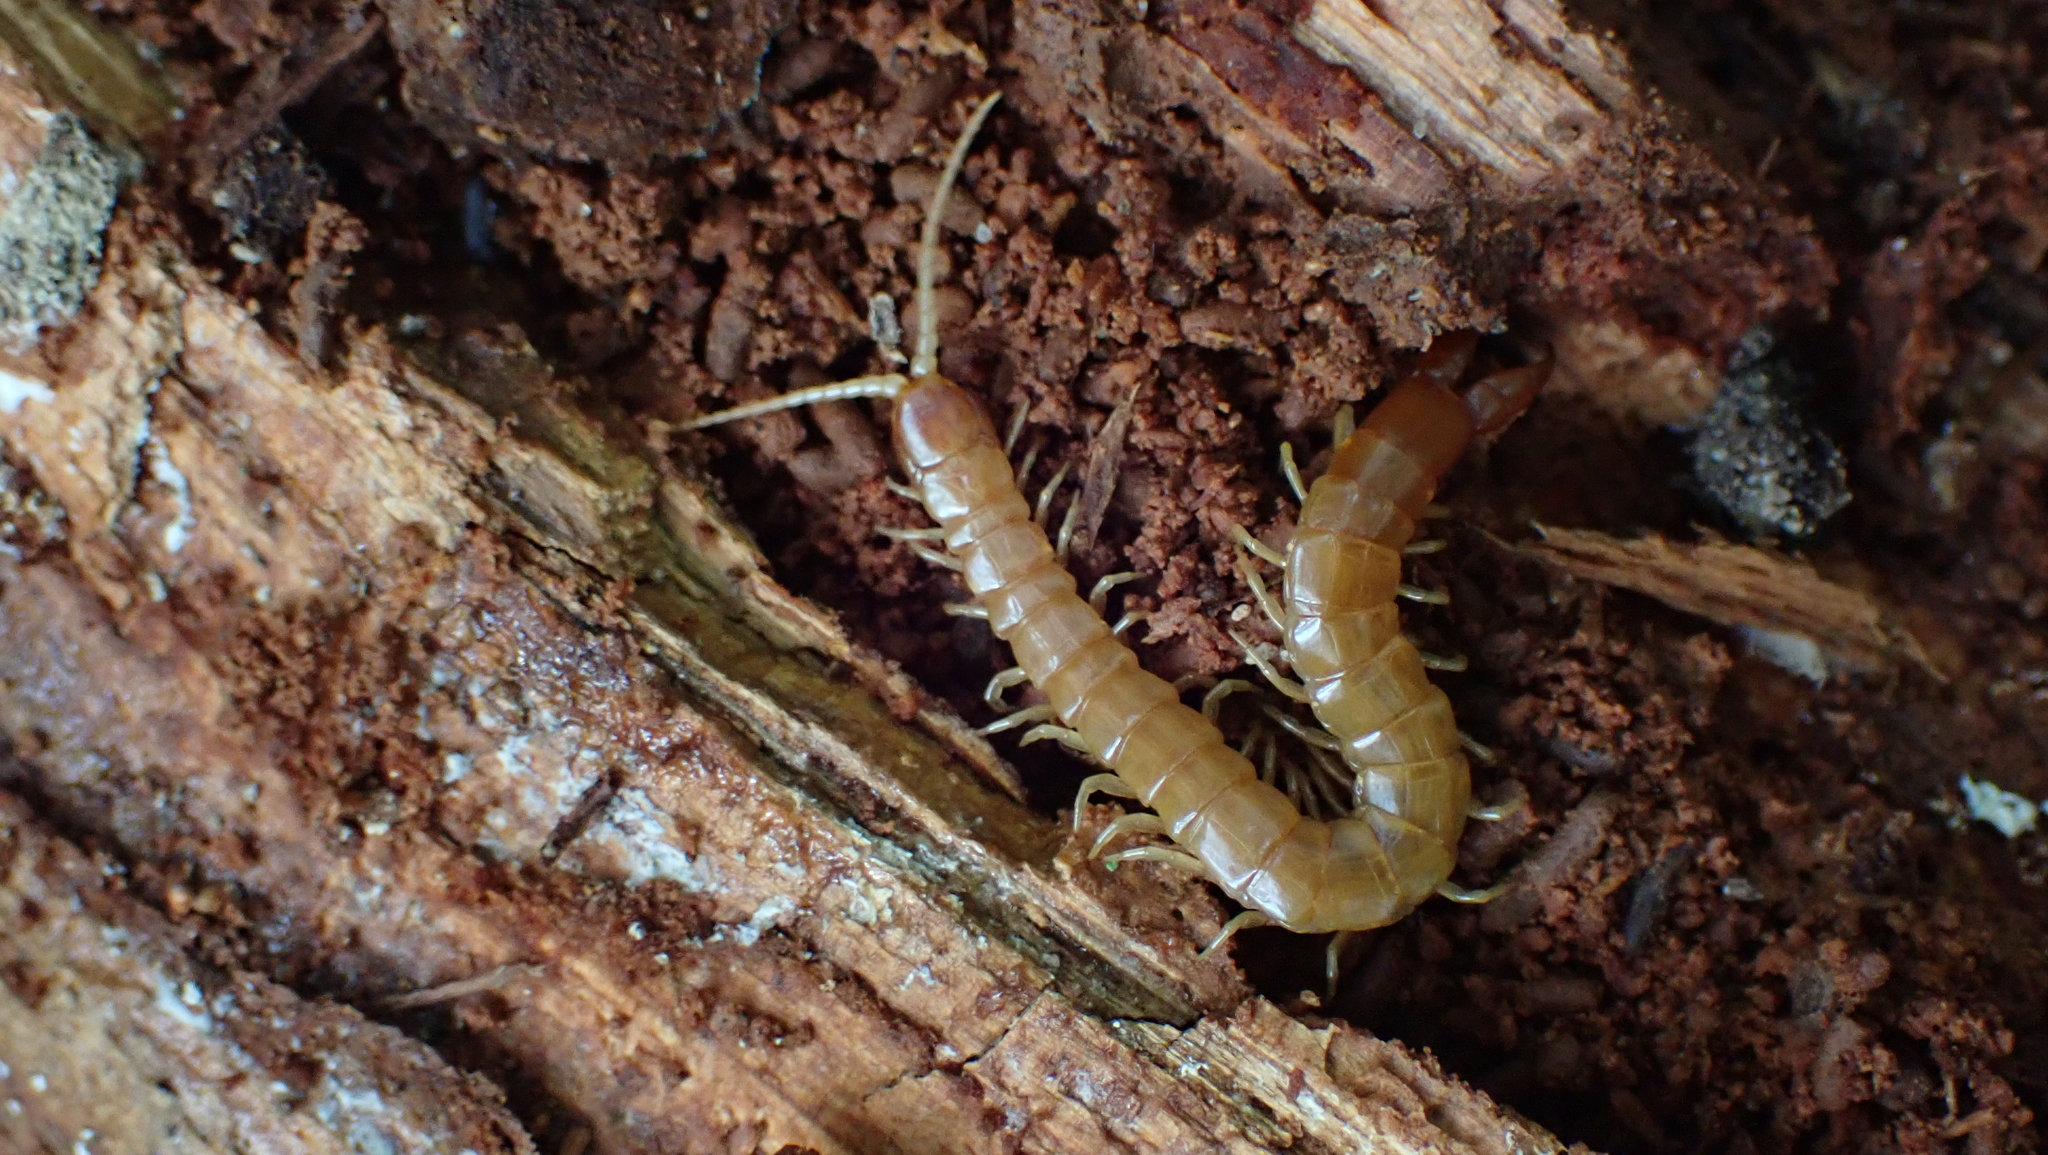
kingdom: Animalia
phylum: Arthropoda
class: Chilopoda
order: Scolopendromorpha
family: Cryptopidae
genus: Theatops
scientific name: Theatops posticus
